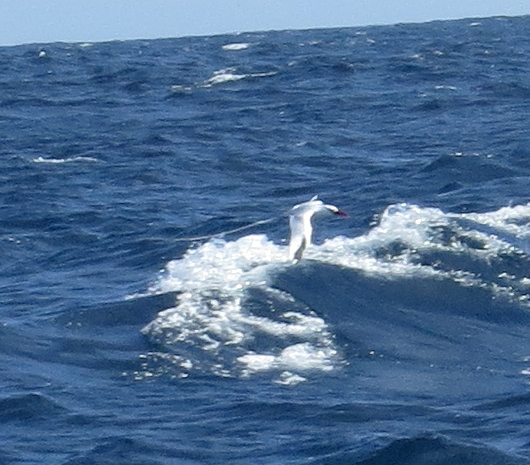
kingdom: Animalia
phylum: Chordata
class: Aves
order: Phaethontiformes
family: Phaethontidae
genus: Phaethon
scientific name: Phaethon aethereus
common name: Red-billed tropicbird
